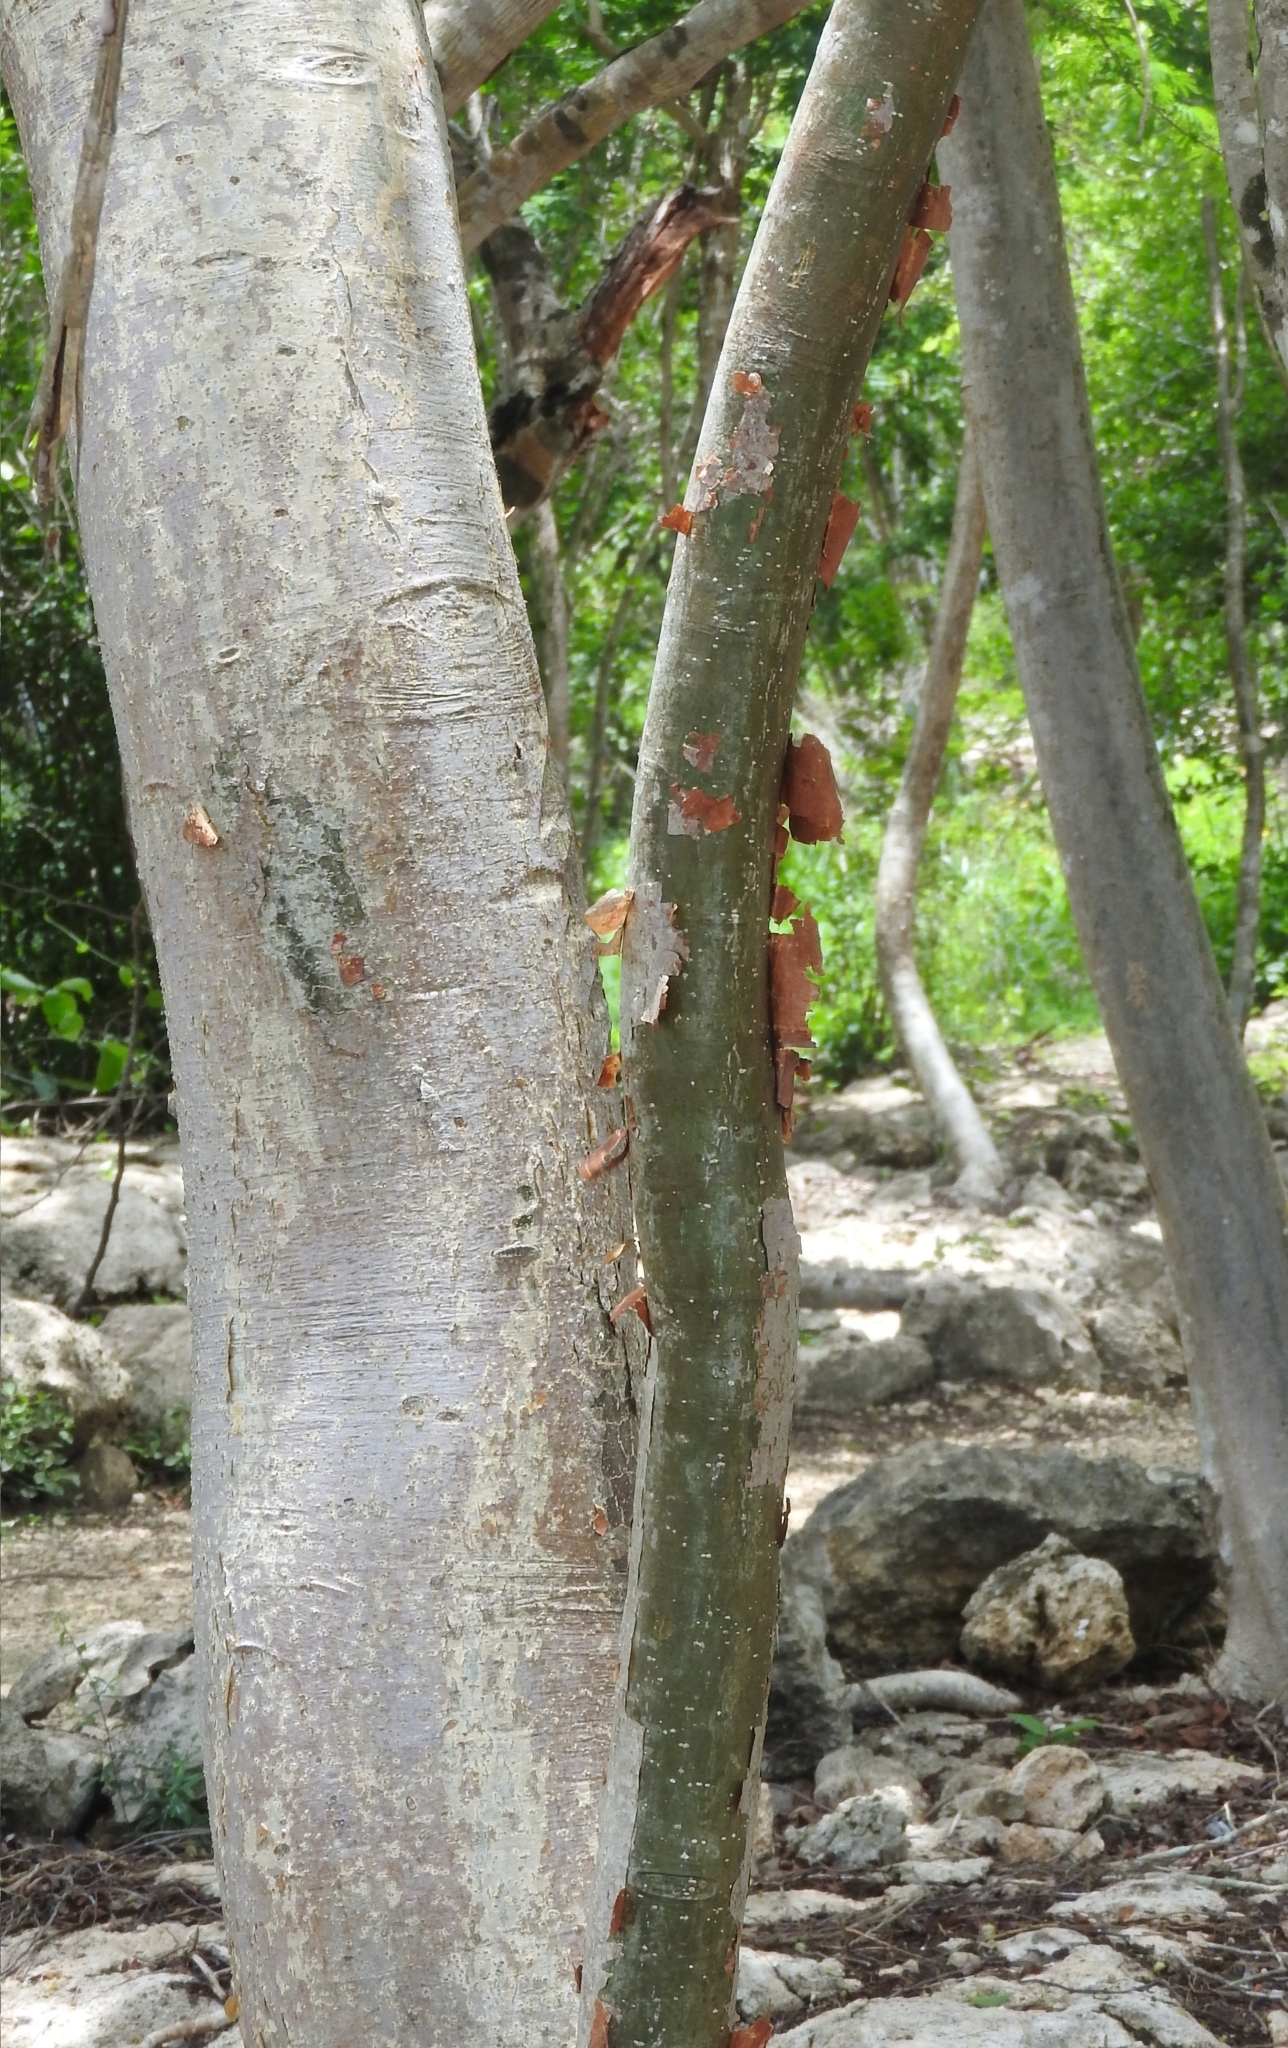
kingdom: Plantae
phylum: Tracheophyta
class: Magnoliopsida
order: Sapindales
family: Burseraceae
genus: Bursera
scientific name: Bursera simaruba
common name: Turpentine tree
